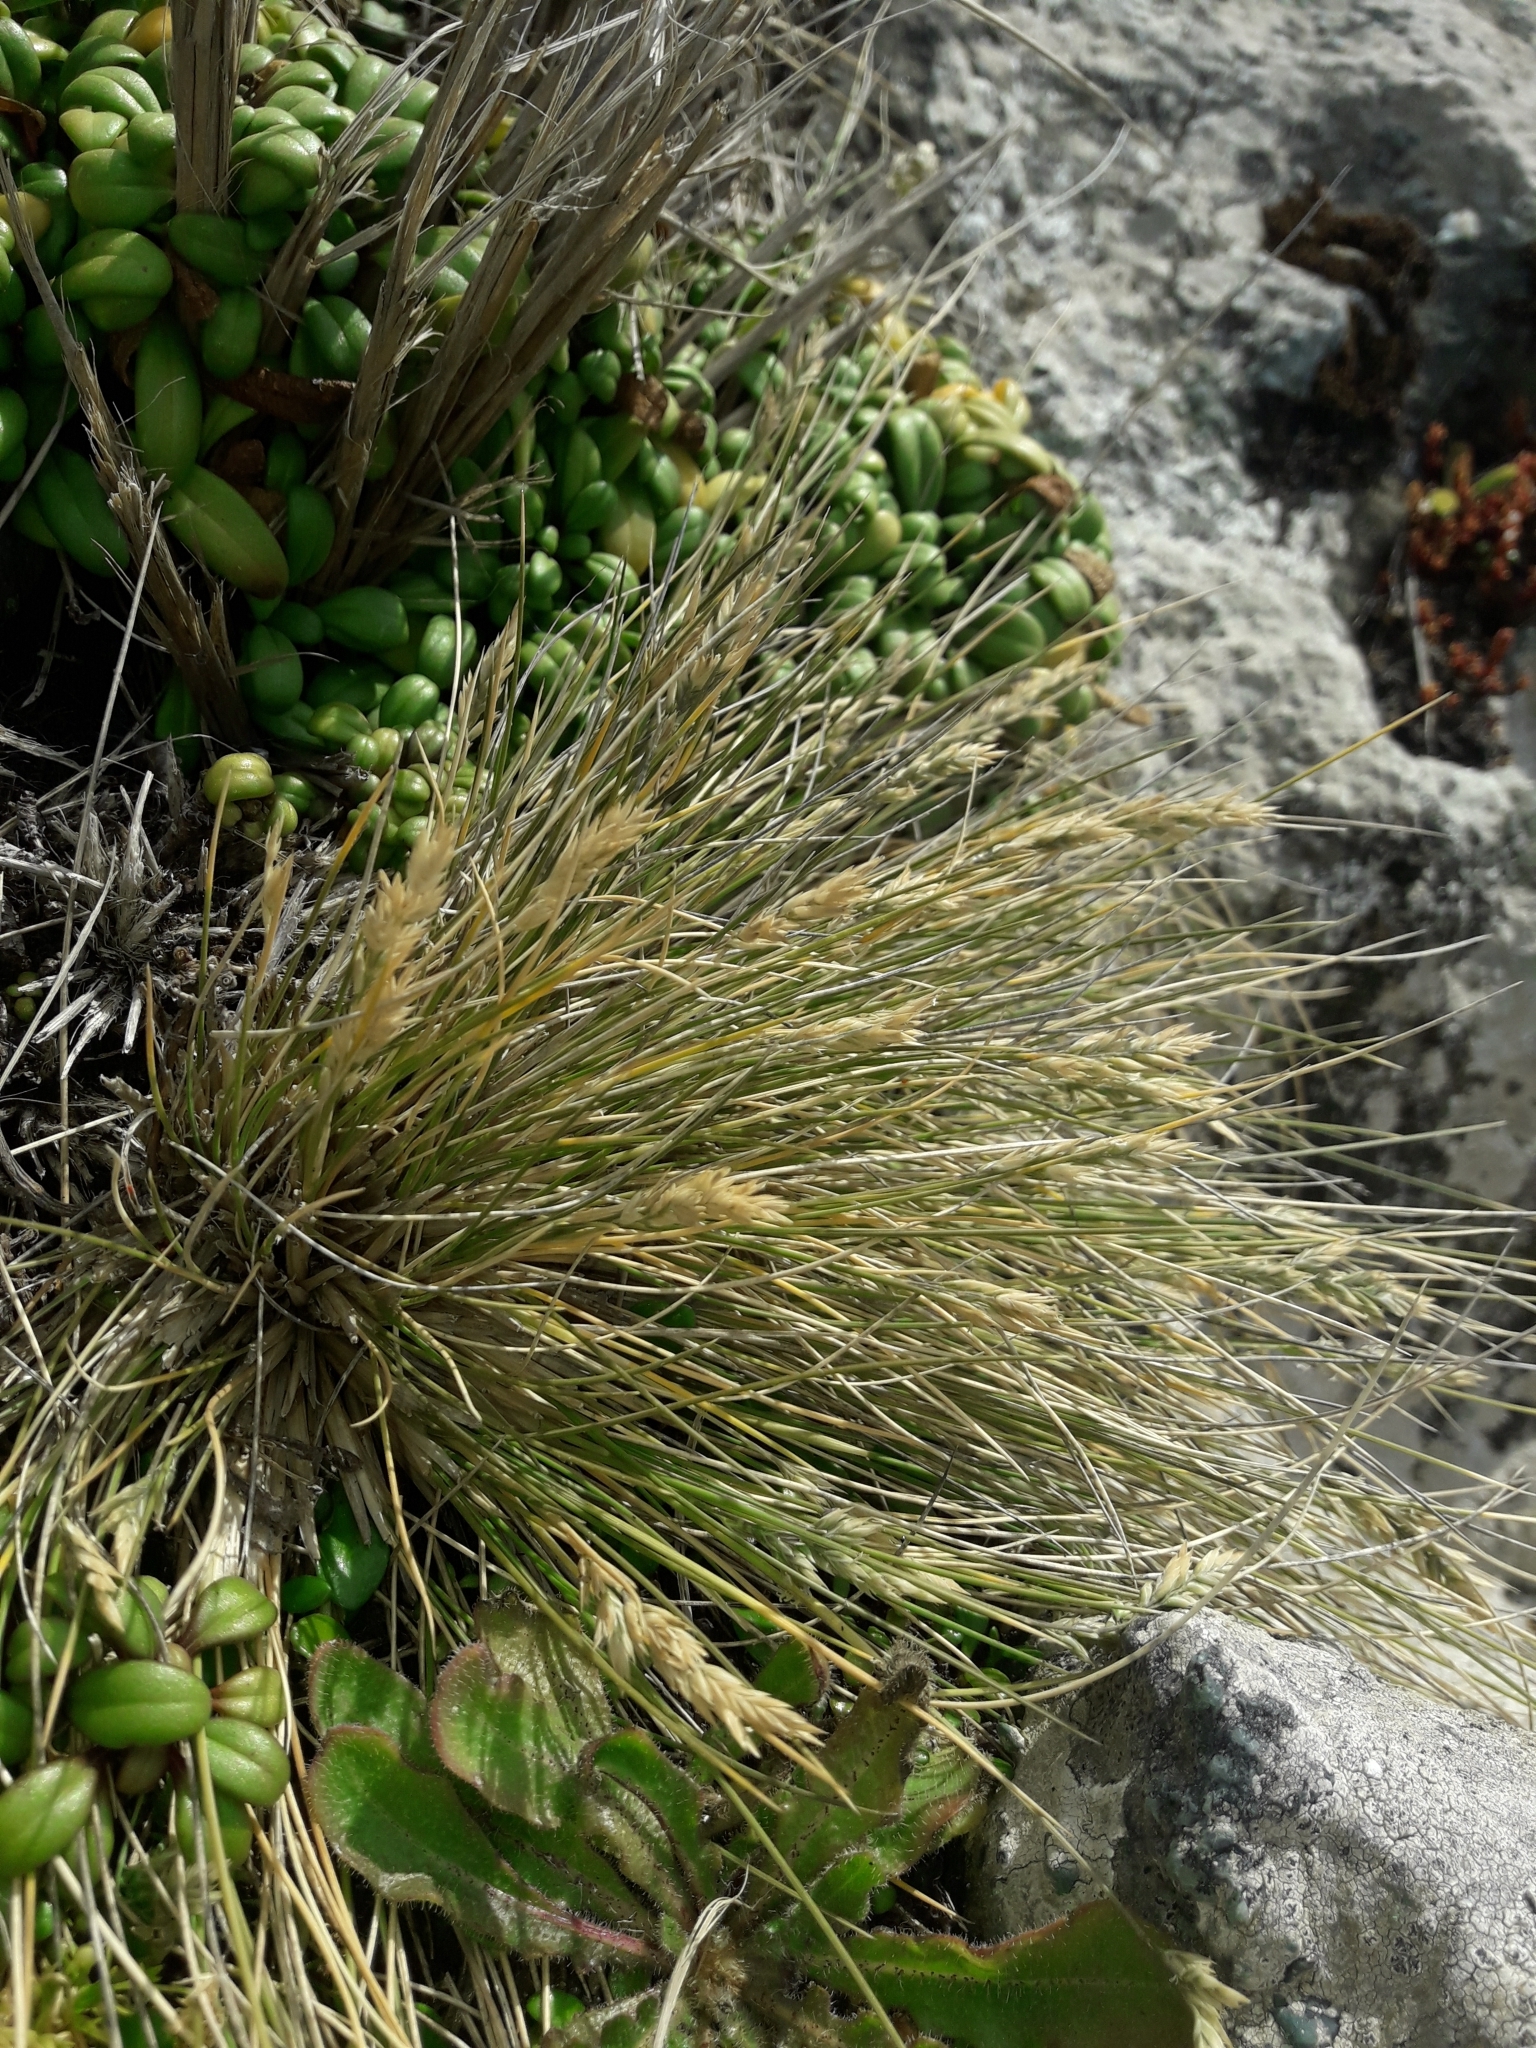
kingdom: Plantae
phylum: Tracheophyta
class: Liliopsida
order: Poales
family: Poaceae
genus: Poa
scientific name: Poa astonii
